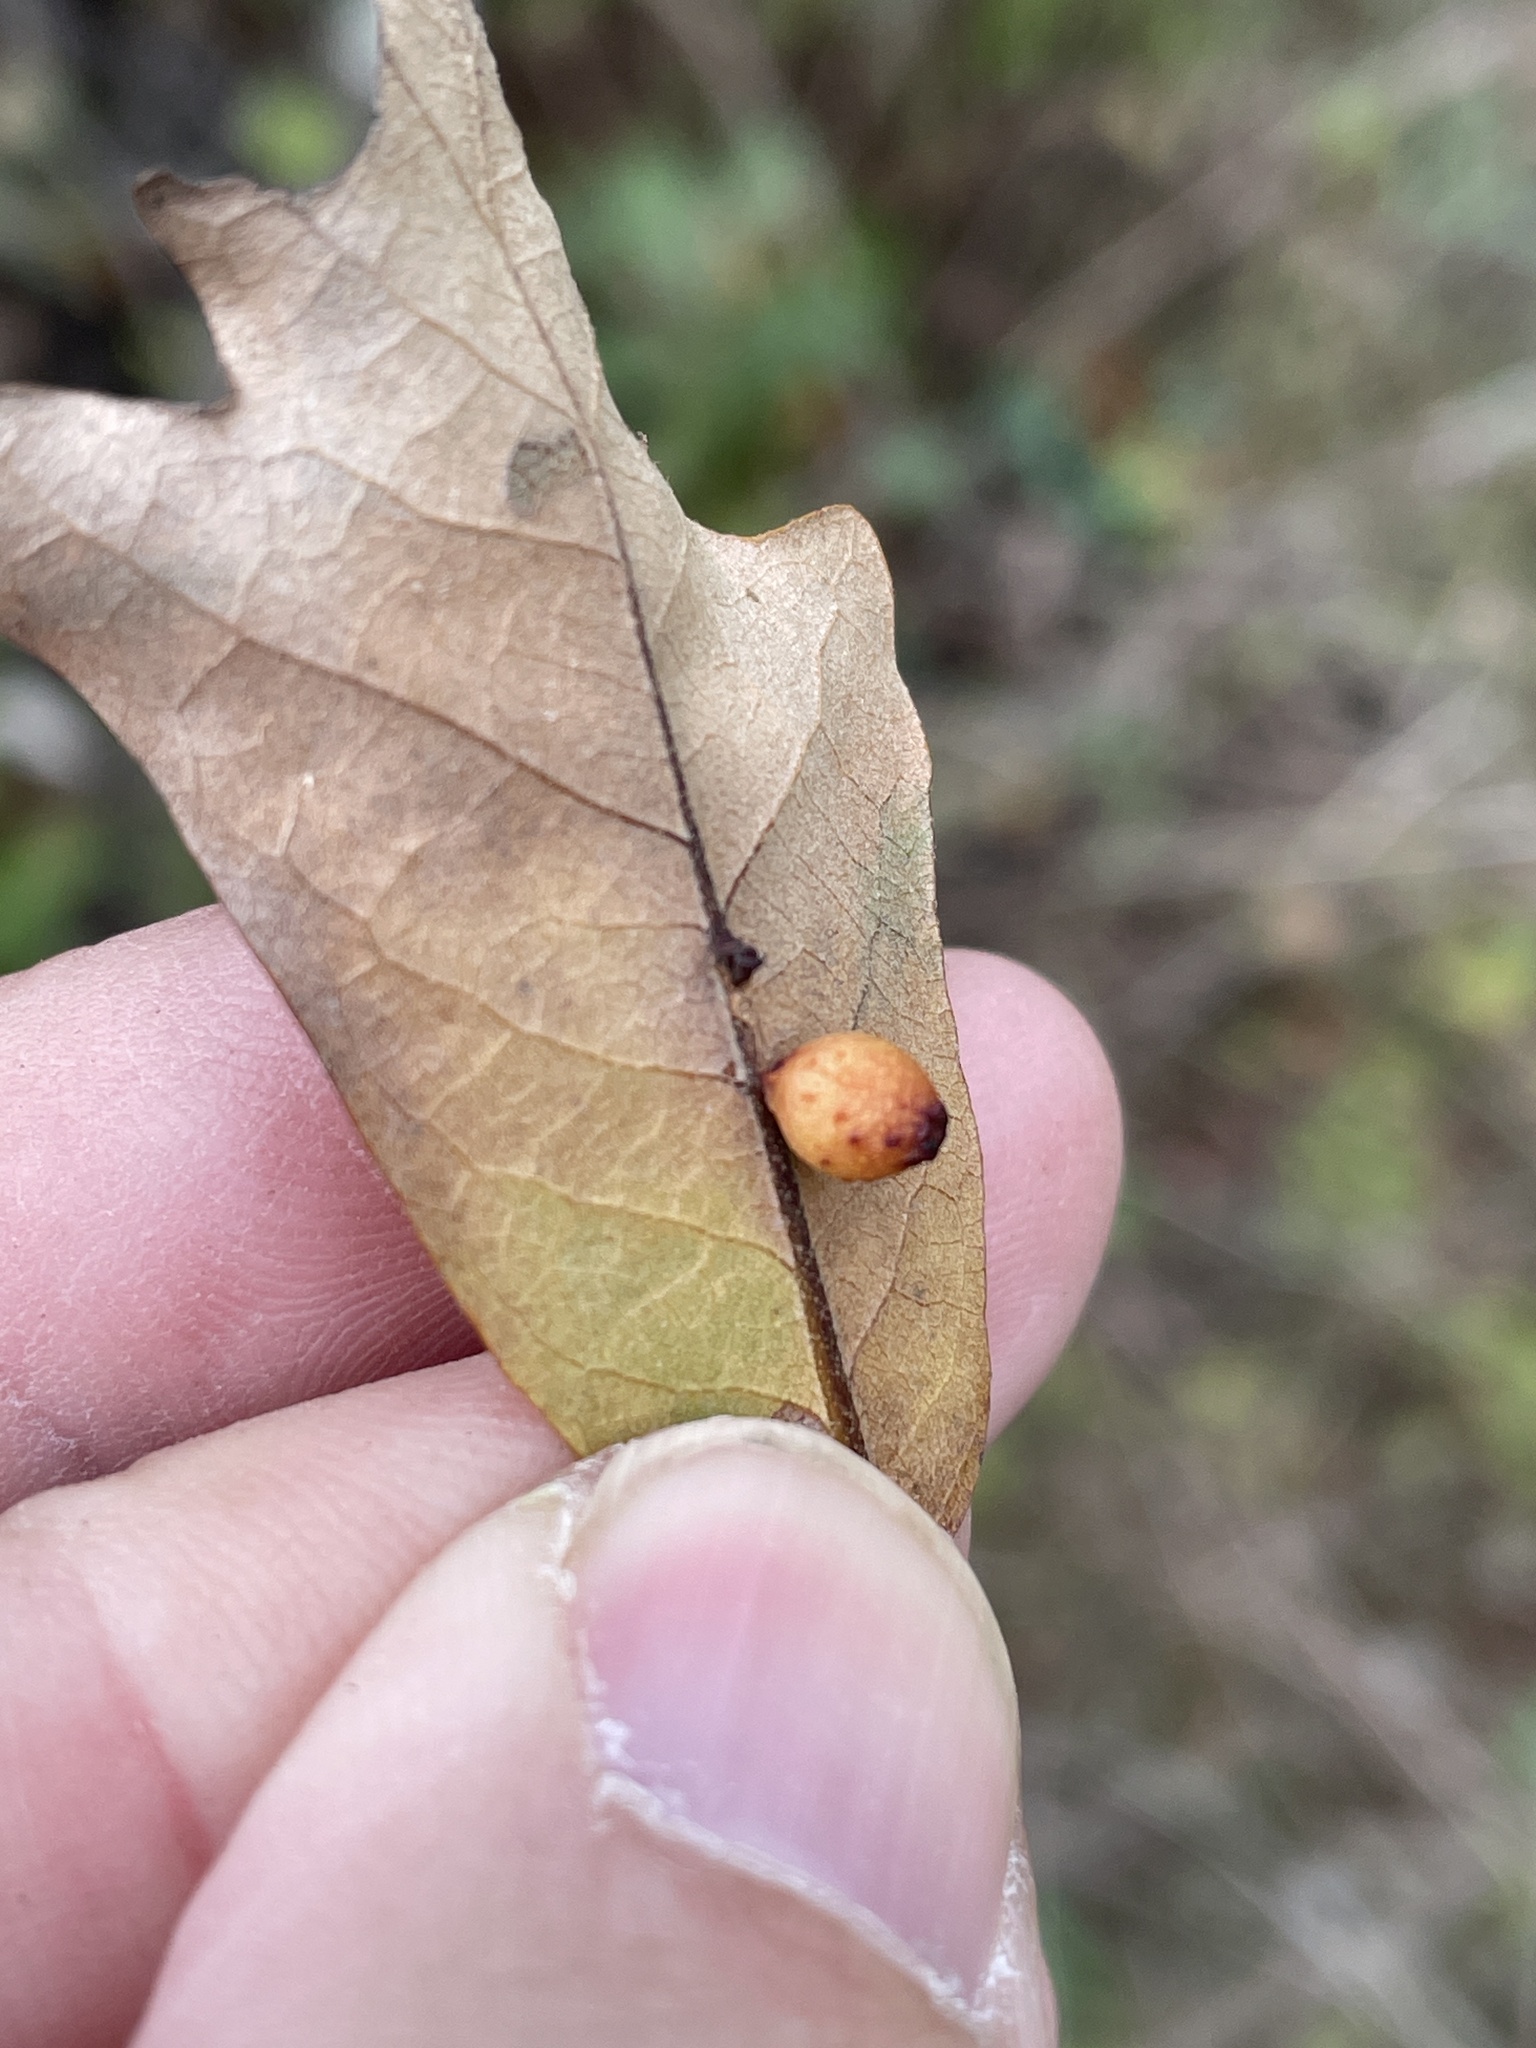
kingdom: Animalia
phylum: Arthropoda
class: Insecta
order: Hymenoptera
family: Cynipidae
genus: Andricus
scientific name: Andricus lustrans
